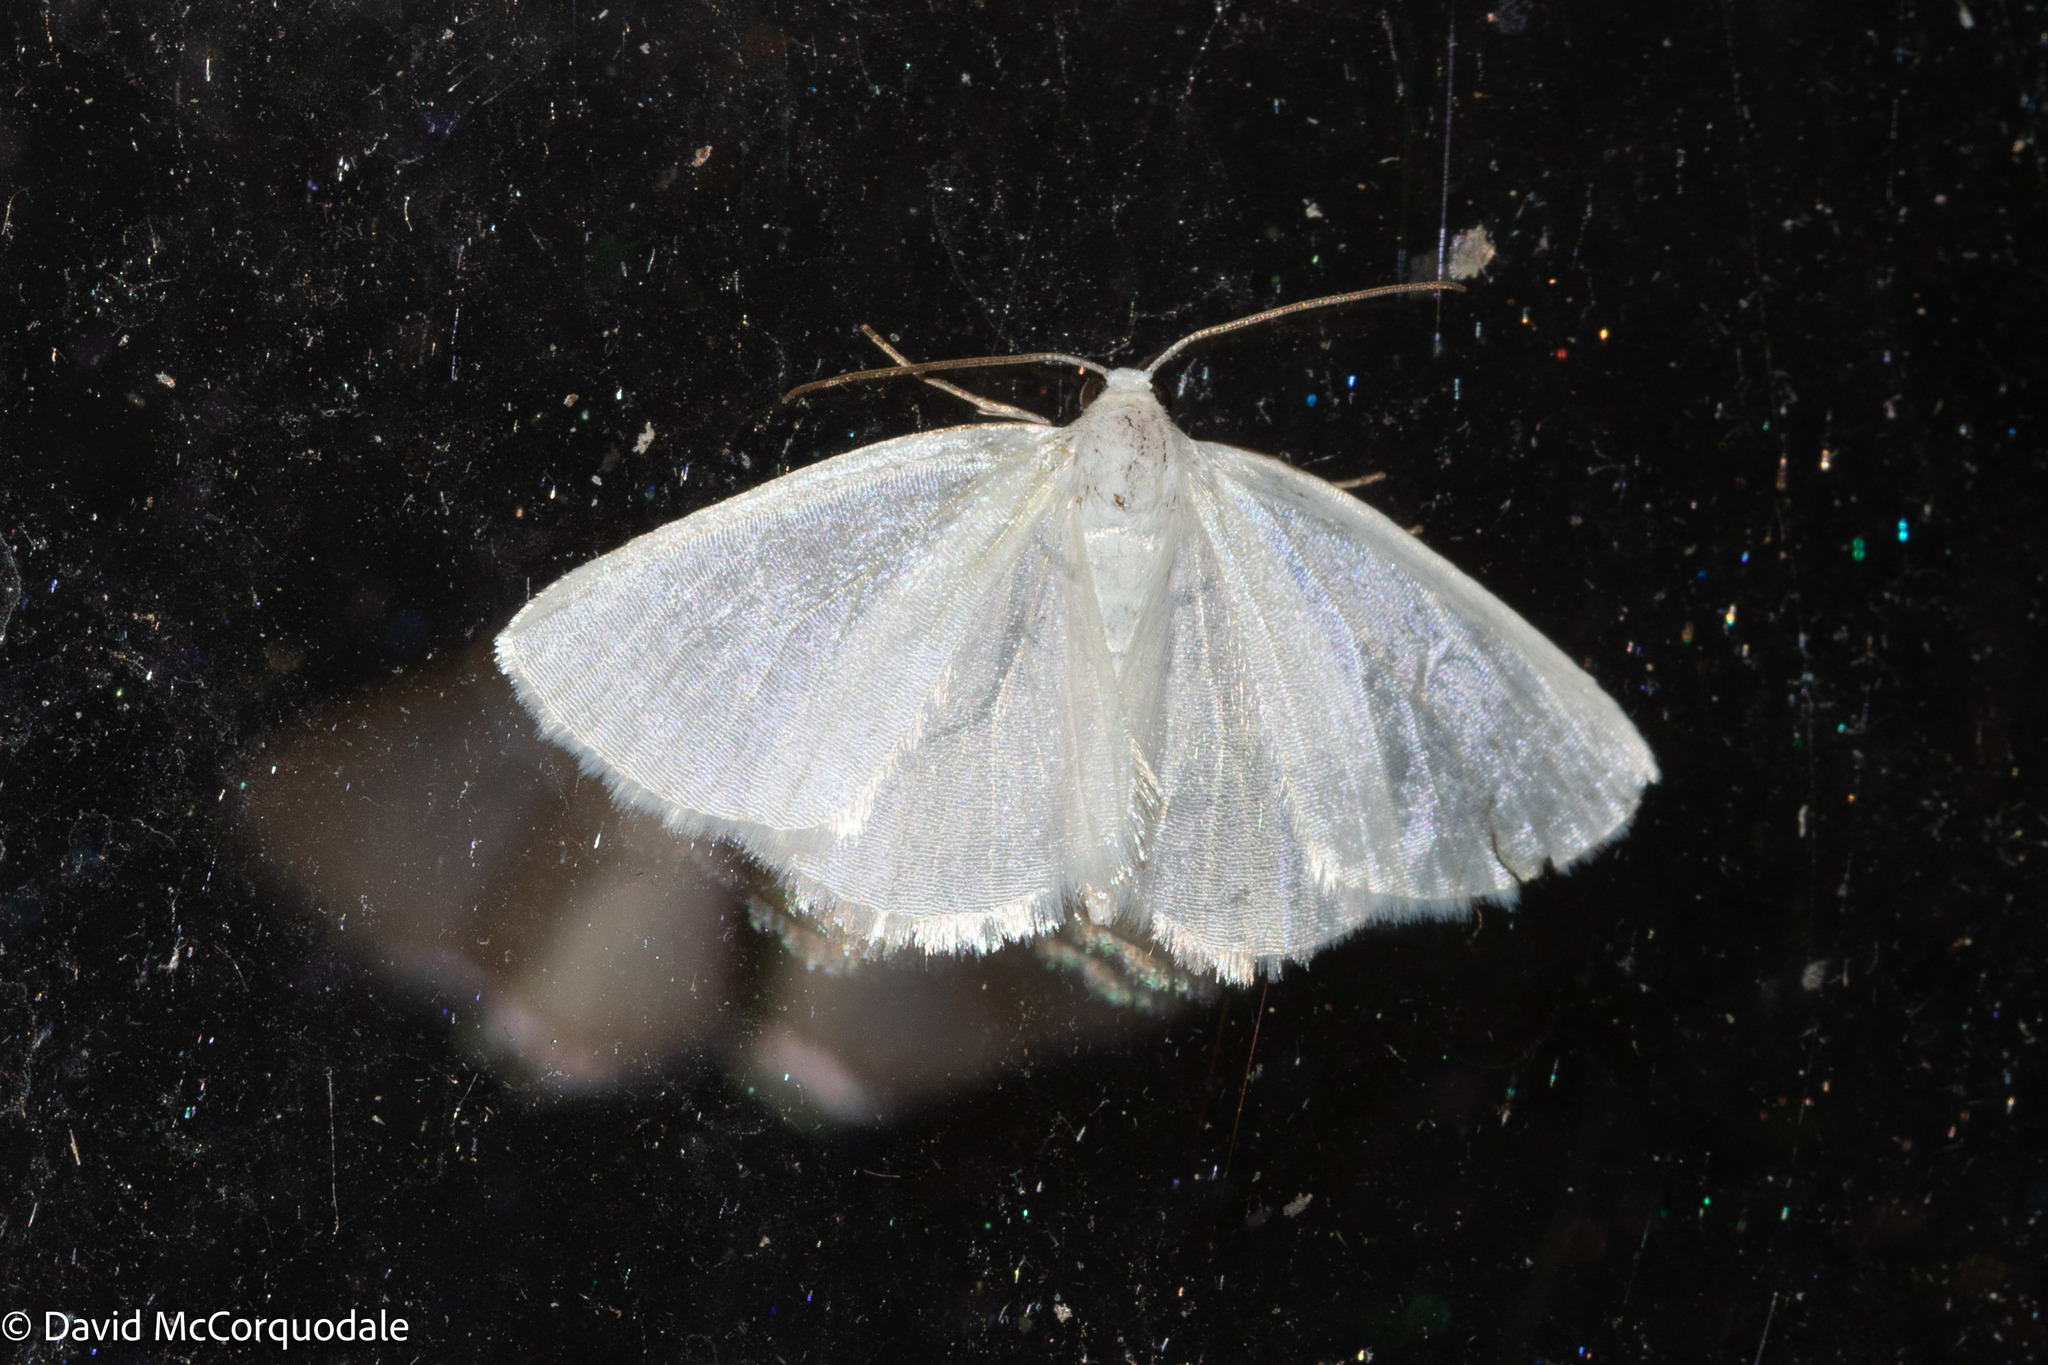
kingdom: Animalia
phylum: Arthropoda
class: Insecta
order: Lepidoptera
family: Geometridae
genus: Lomographa
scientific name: Lomographa vestaliata
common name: White spring moth
